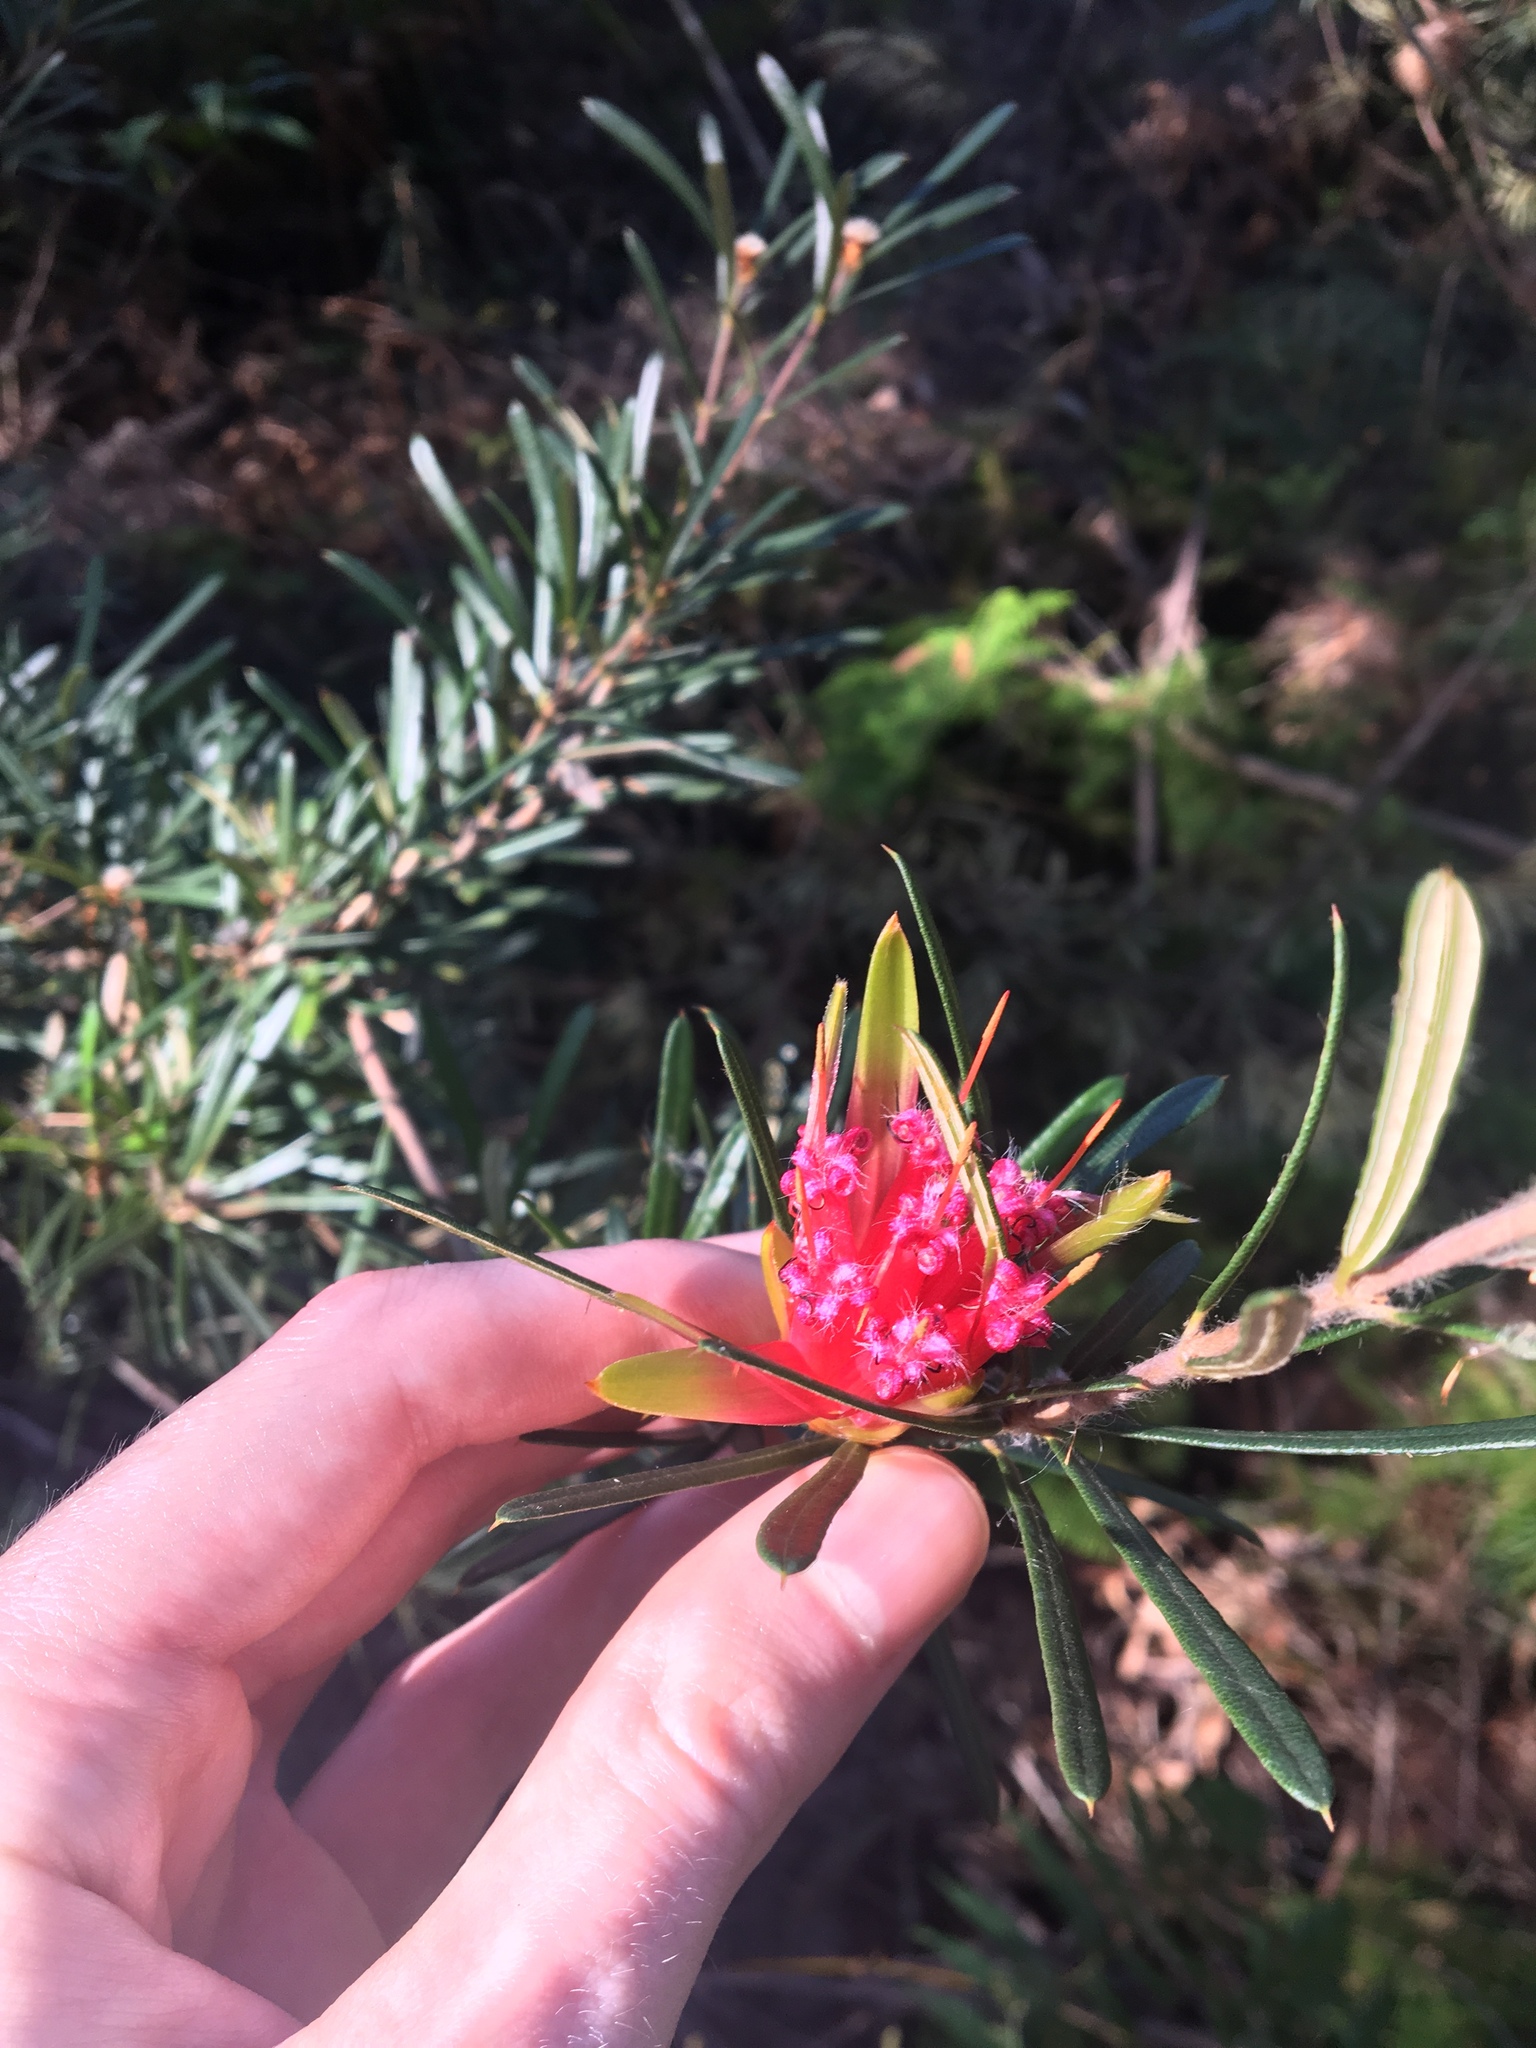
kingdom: Plantae
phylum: Tracheophyta
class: Magnoliopsida
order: Proteales
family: Proteaceae
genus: Lambertia
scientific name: Lambertia formosa
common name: Mountain-devil
